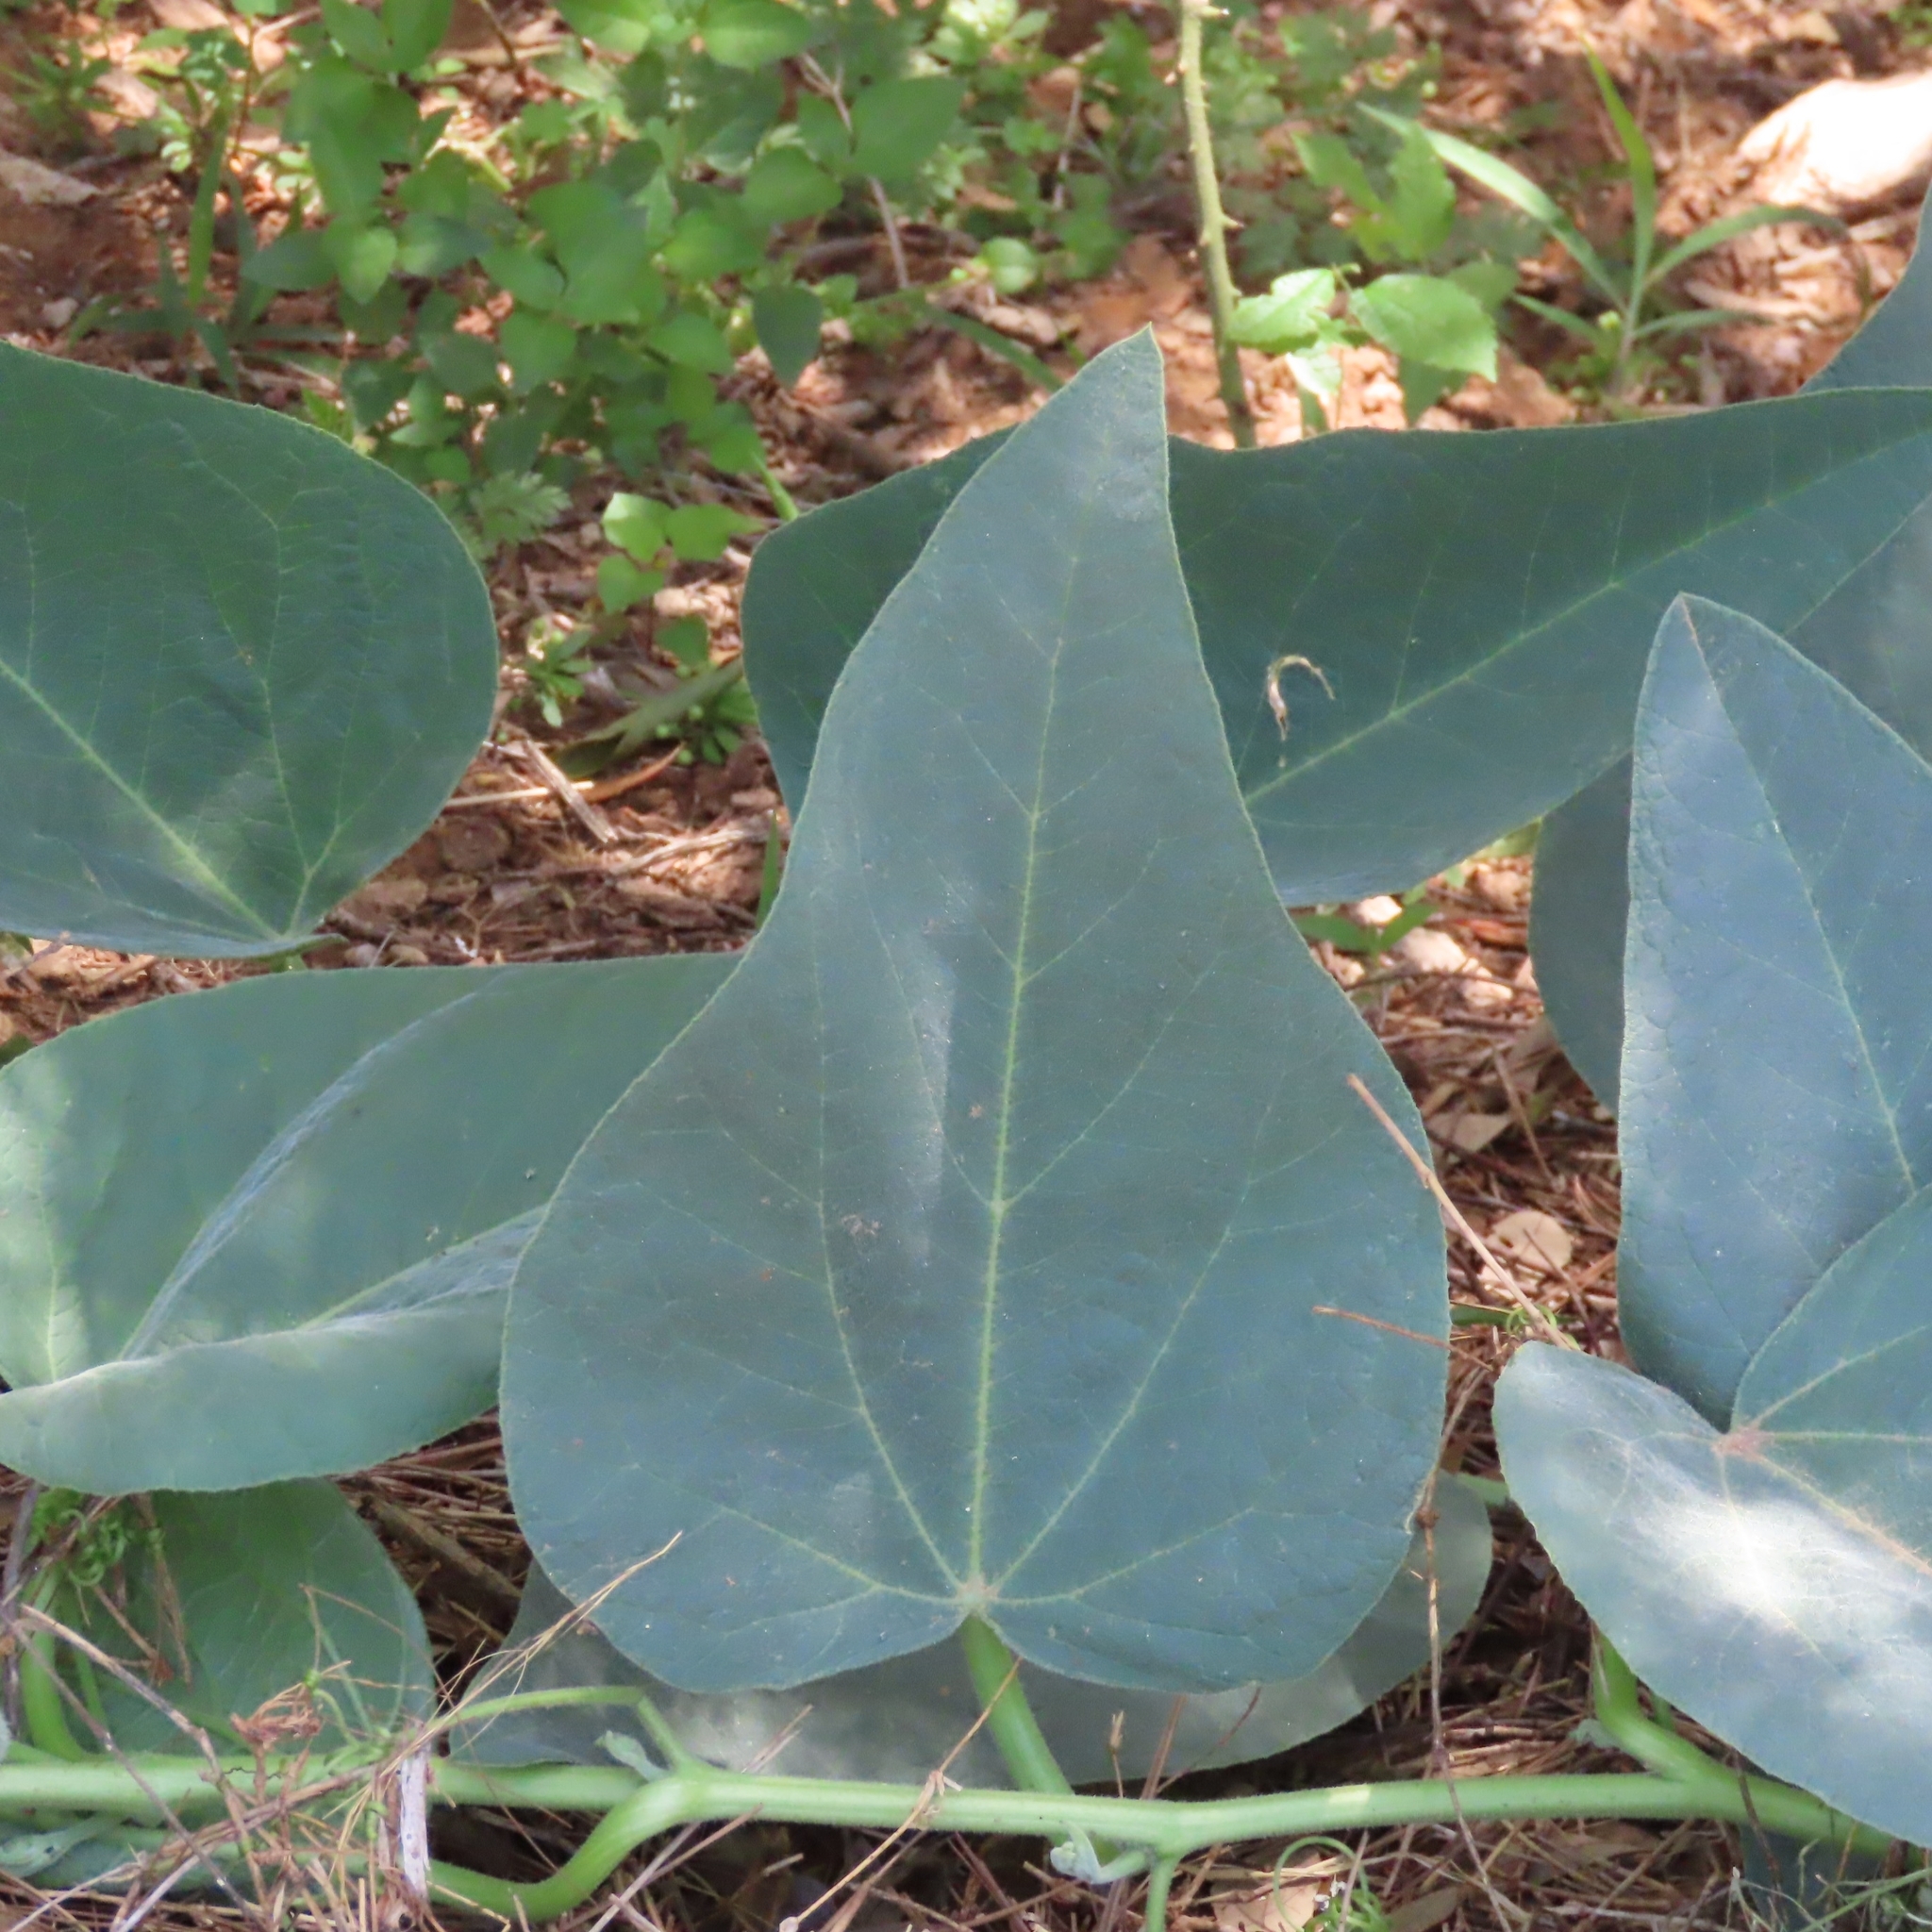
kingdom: Plantae
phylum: Tracheophyta
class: Magnoliopsida
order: Cucurbitales
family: Cucurbitaceae
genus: Cucurbita
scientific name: Cucurbita foetidissima
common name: Buffalo gourd
